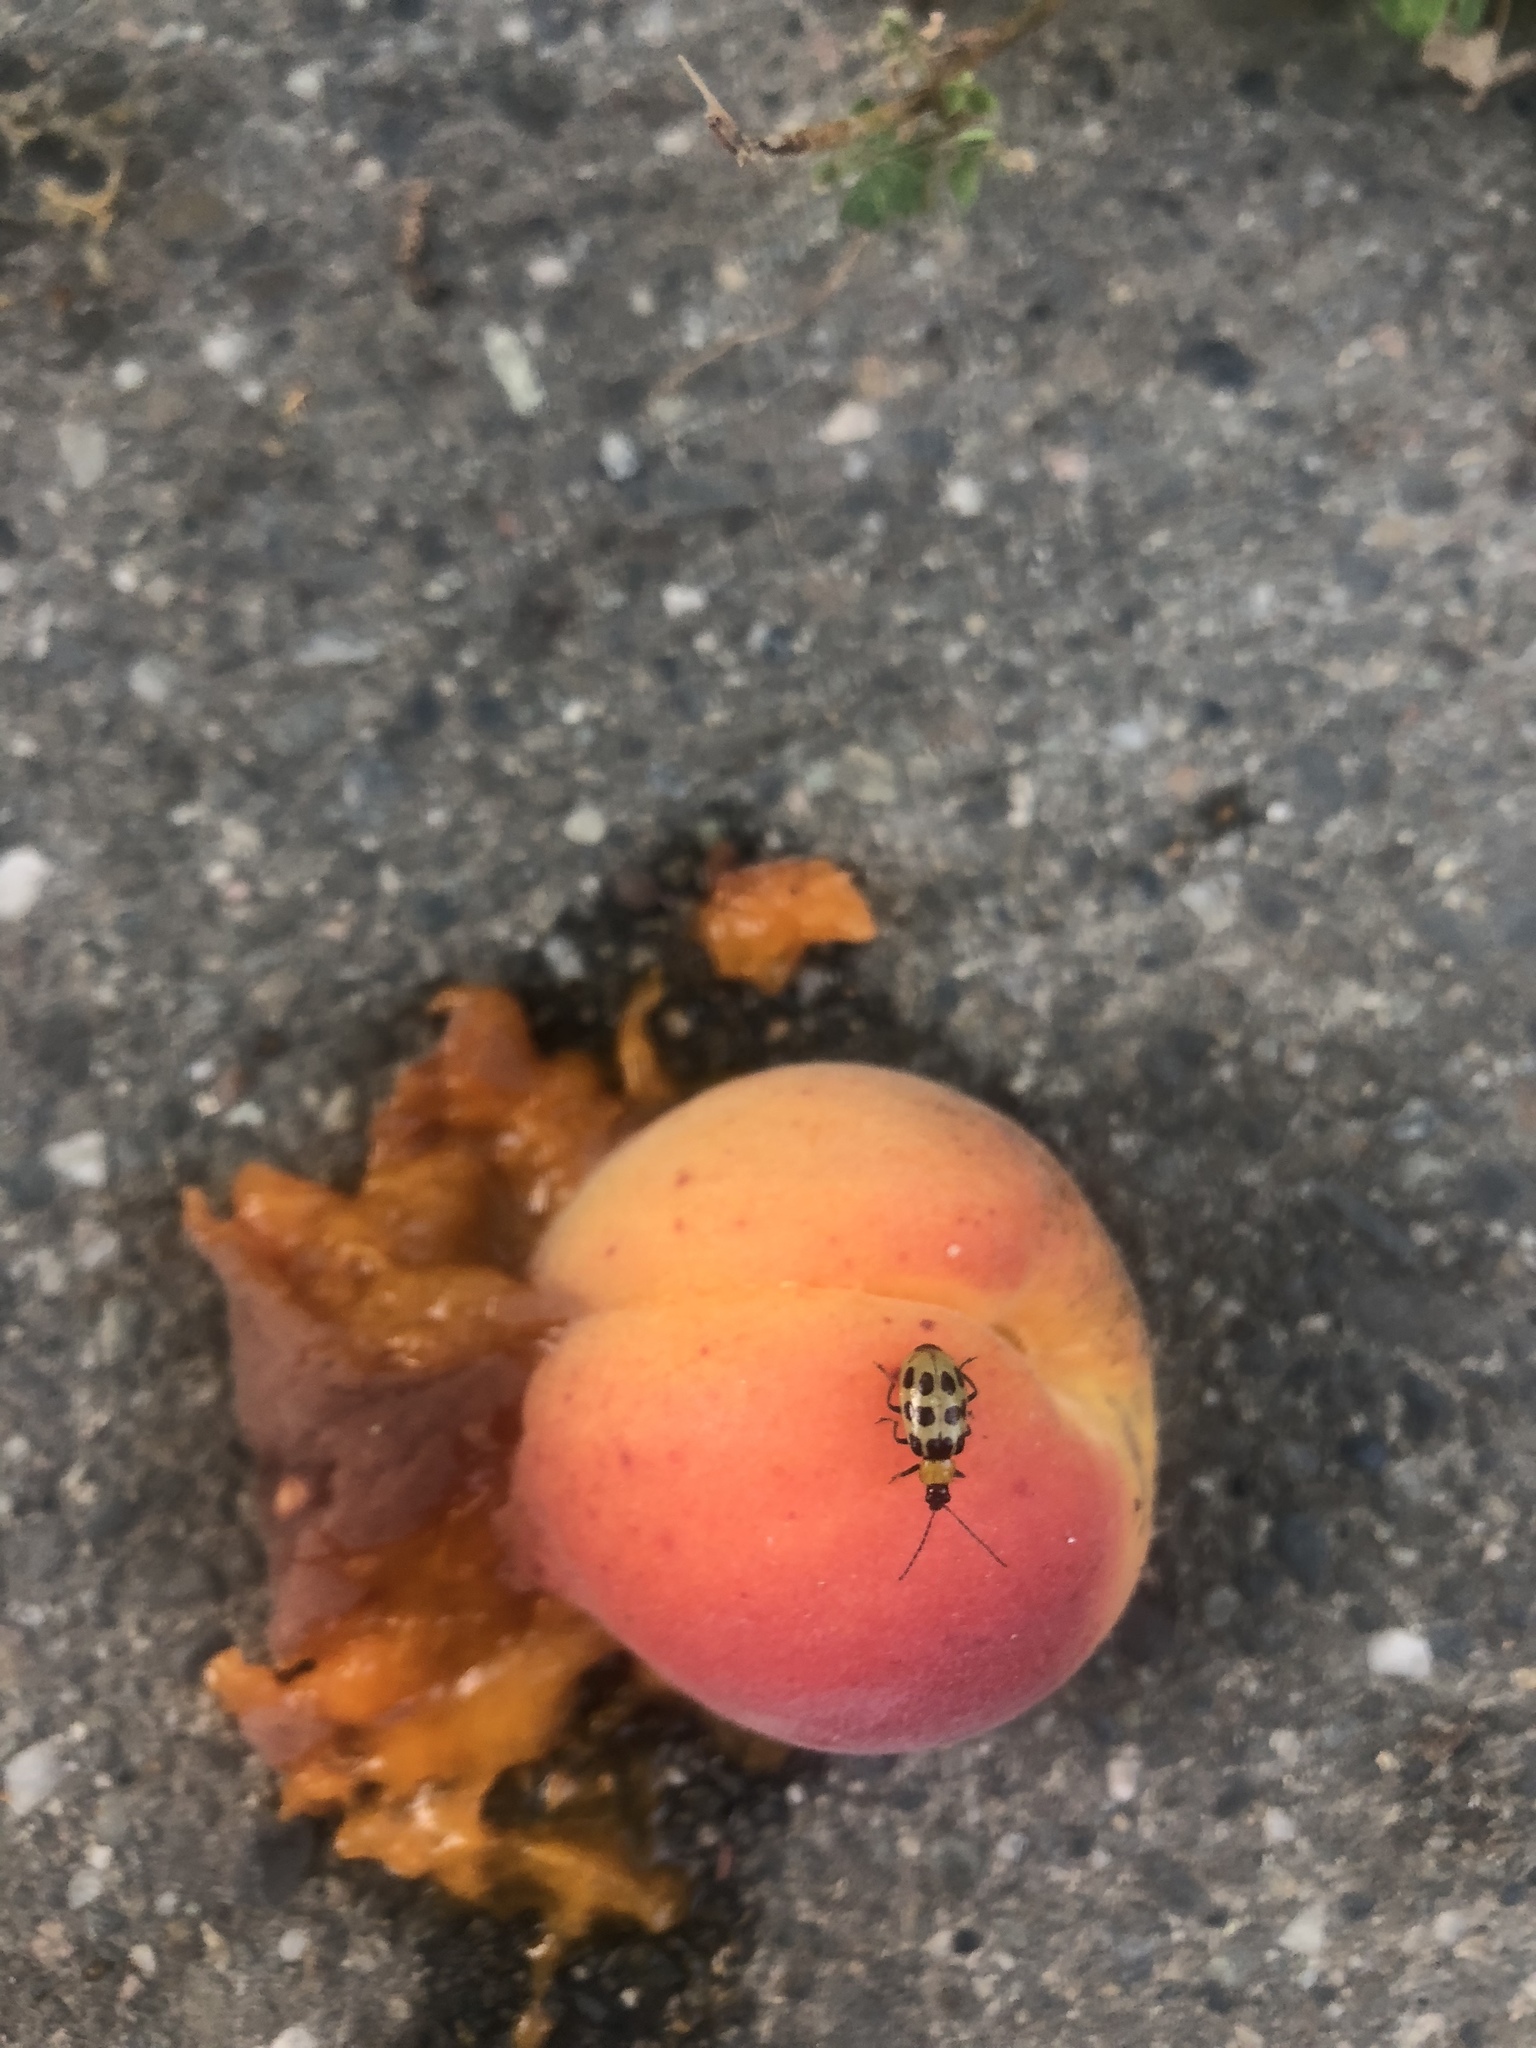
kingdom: Animalia
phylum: Arthropoda
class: Insecta
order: Coleoptera
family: Chrysomelidae
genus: Diabrotica
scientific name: Diabrotica undecimpunctata
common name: Spotted cucumber beetle
